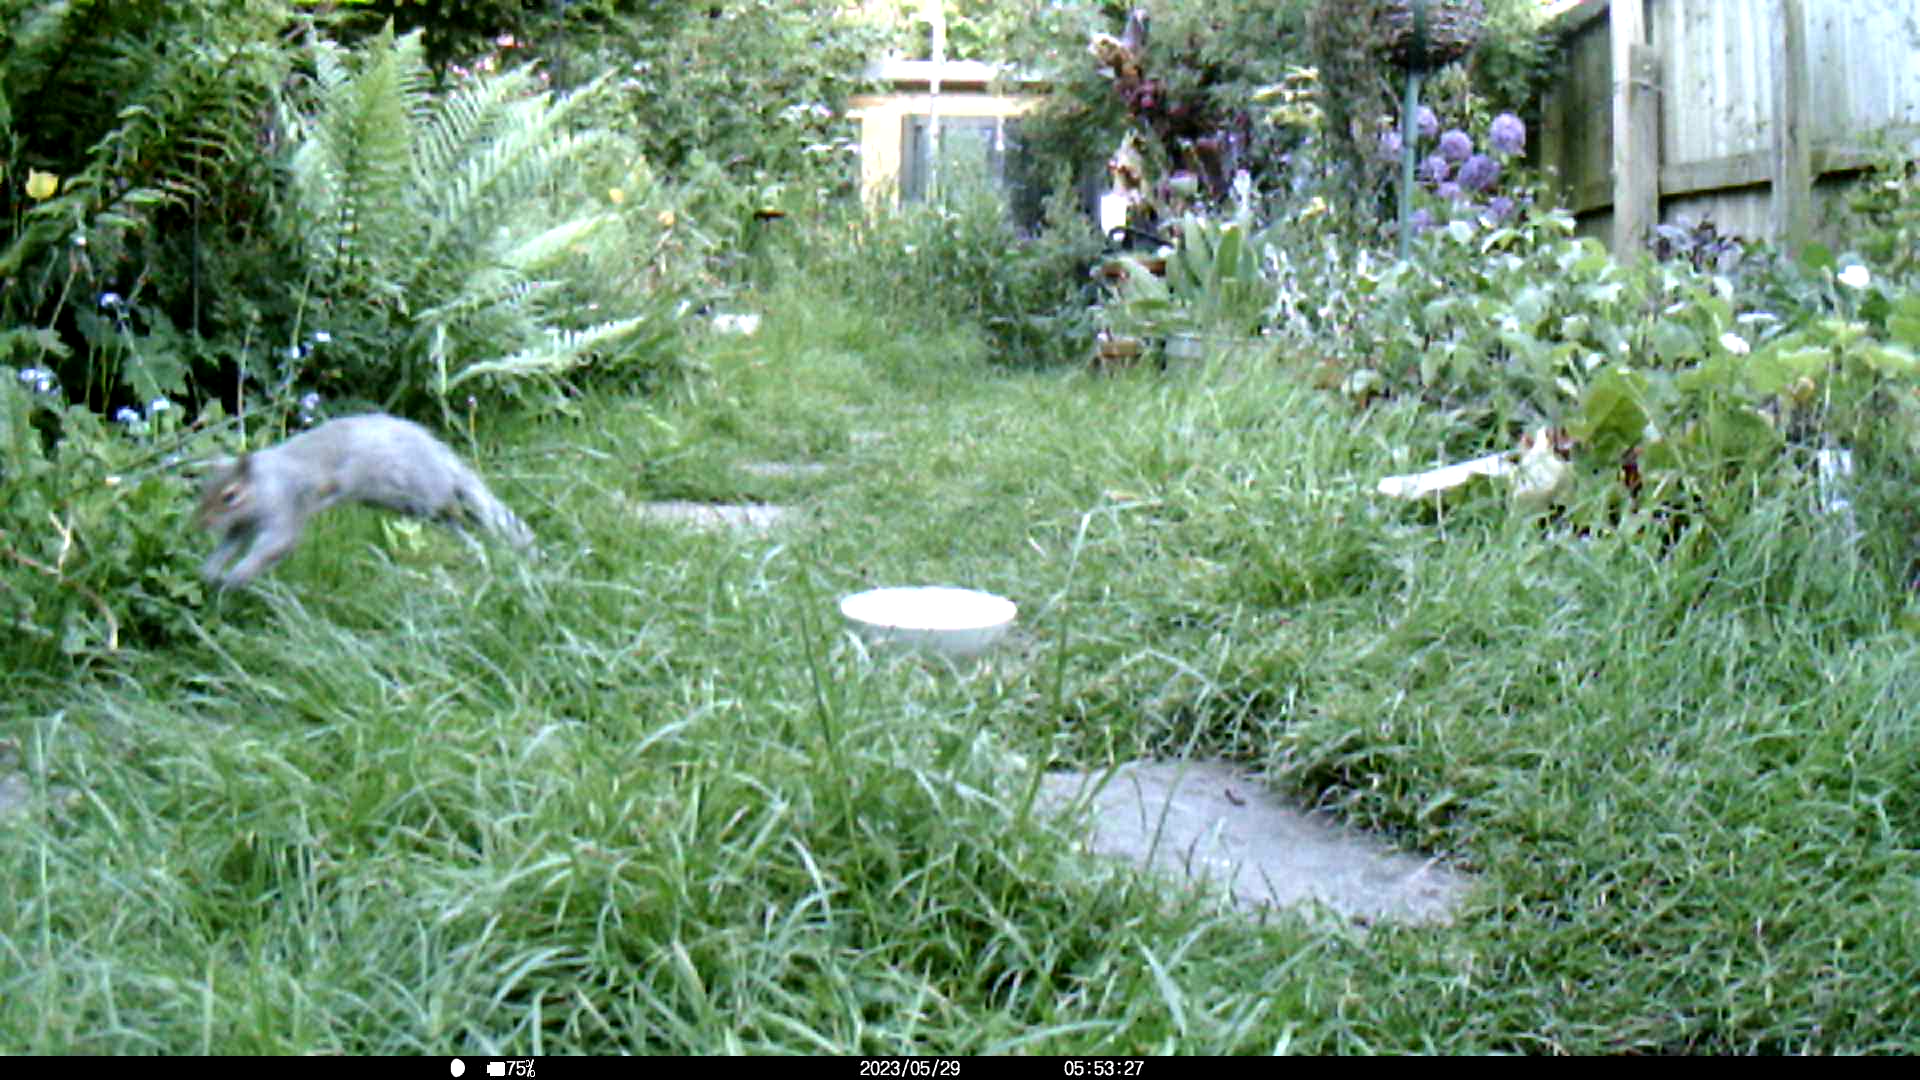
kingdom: Animalia
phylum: Chordata
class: Mammalia
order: Rodentia
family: Sciuridae
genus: Sciurus
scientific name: Sciurus carolinensis
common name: Eastern gray squirrel
